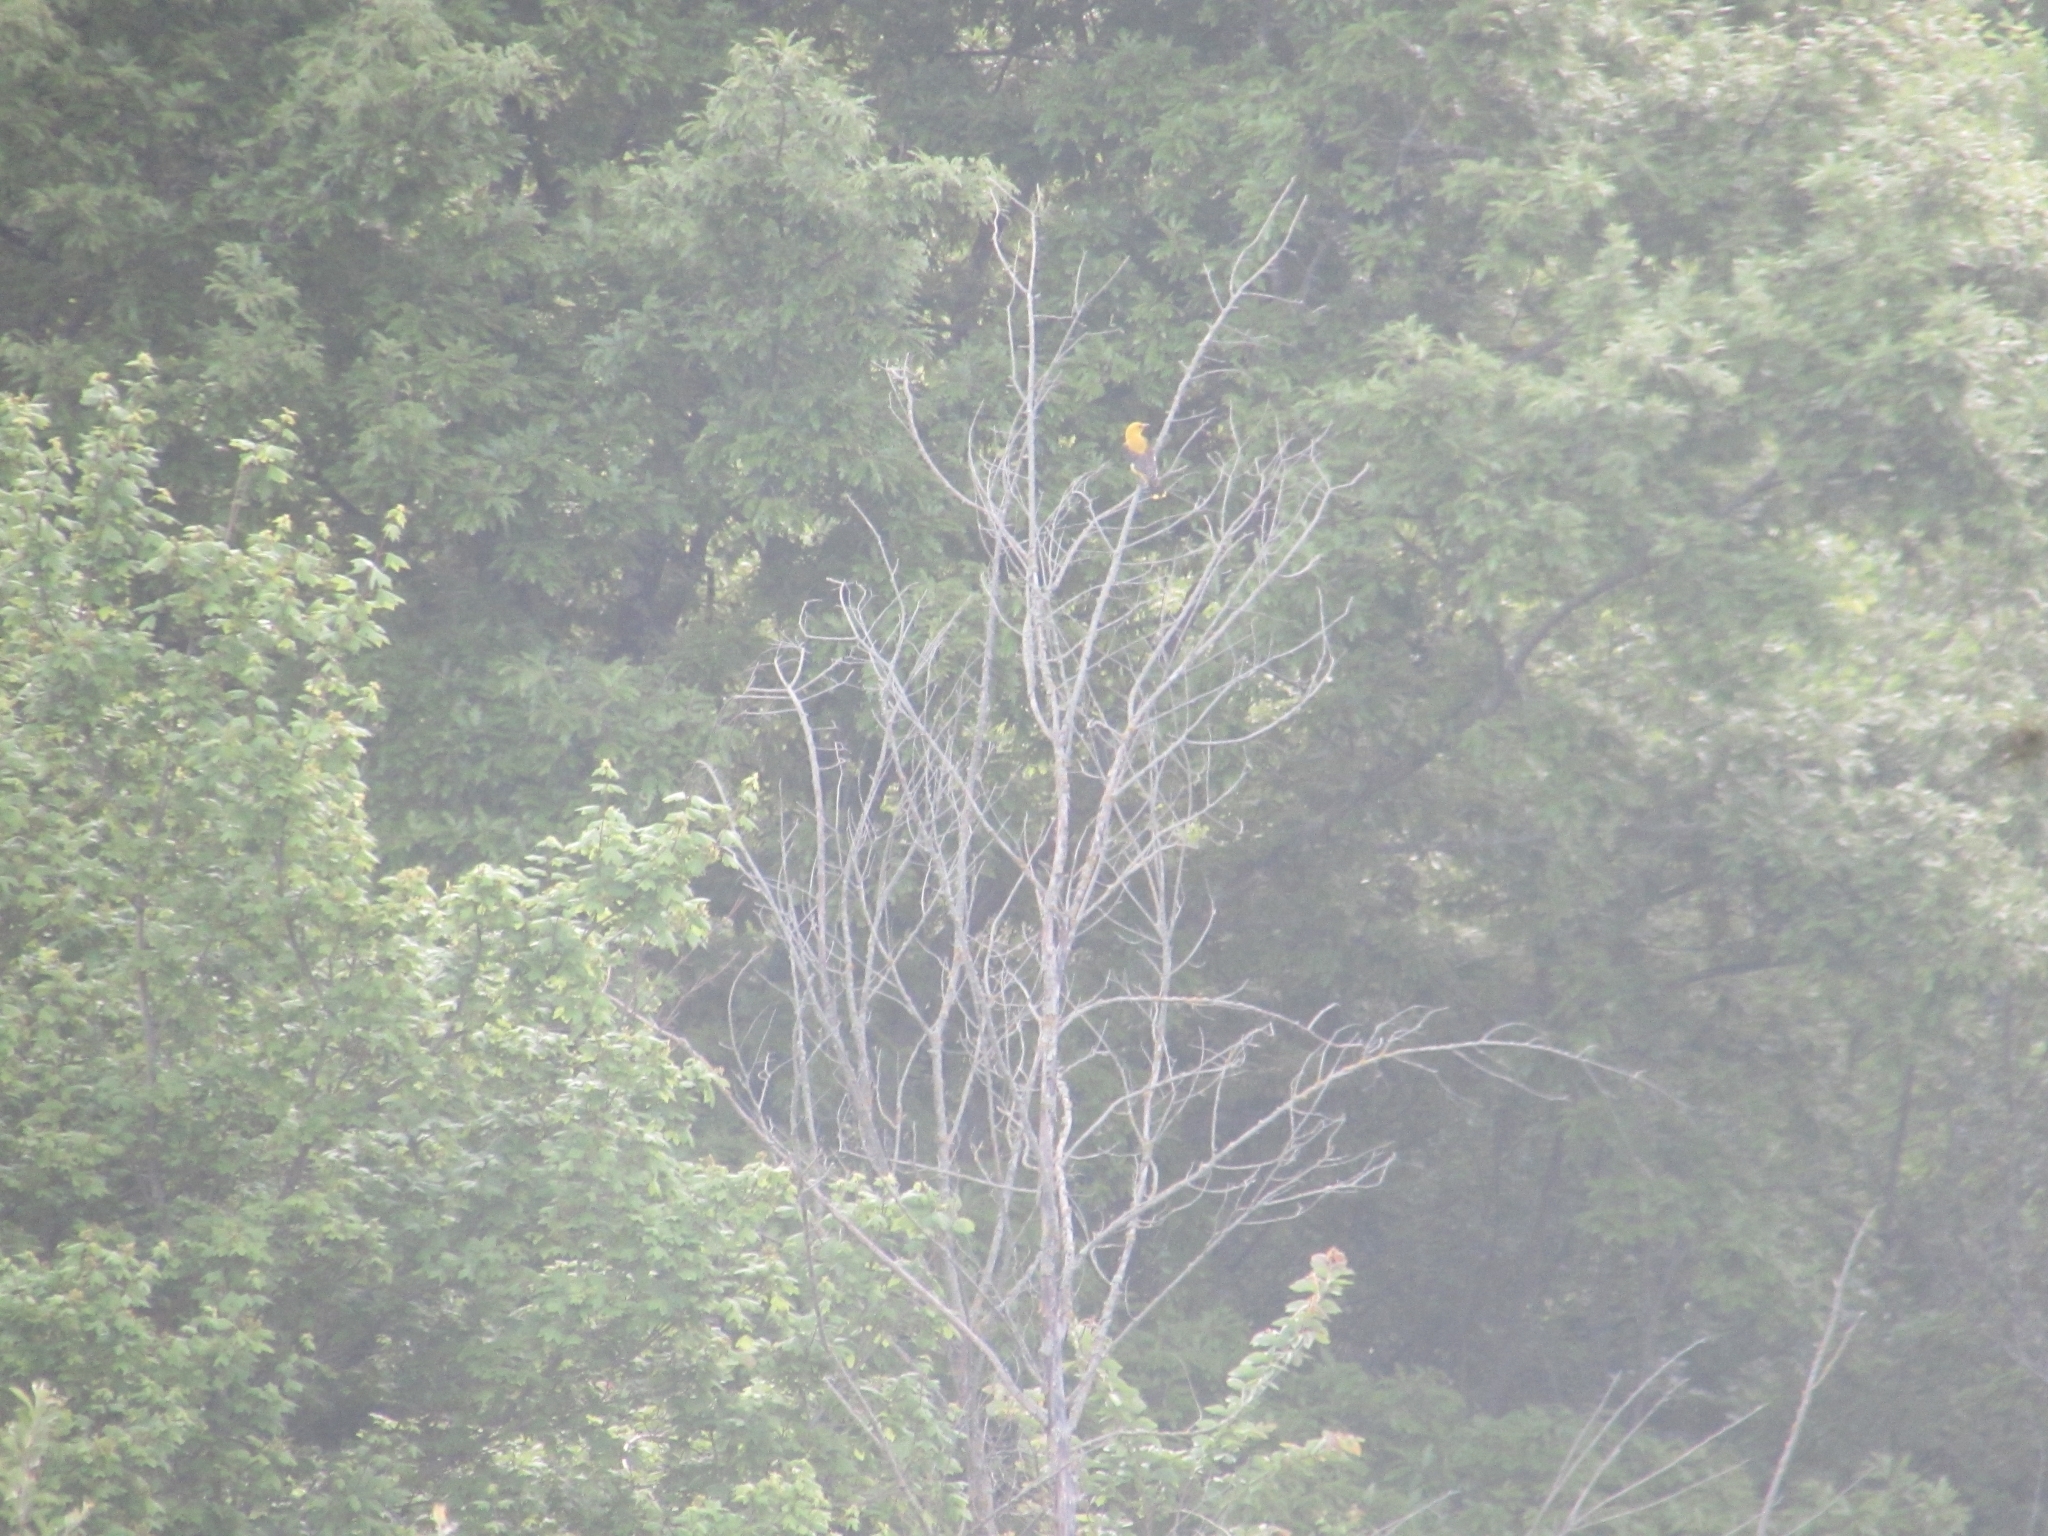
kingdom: Animalia
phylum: Chordata
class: Aves
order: Passeriformes
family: Oriolidae
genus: Oriolus
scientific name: Oriolus oriolus
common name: Eurasian golden oriole
